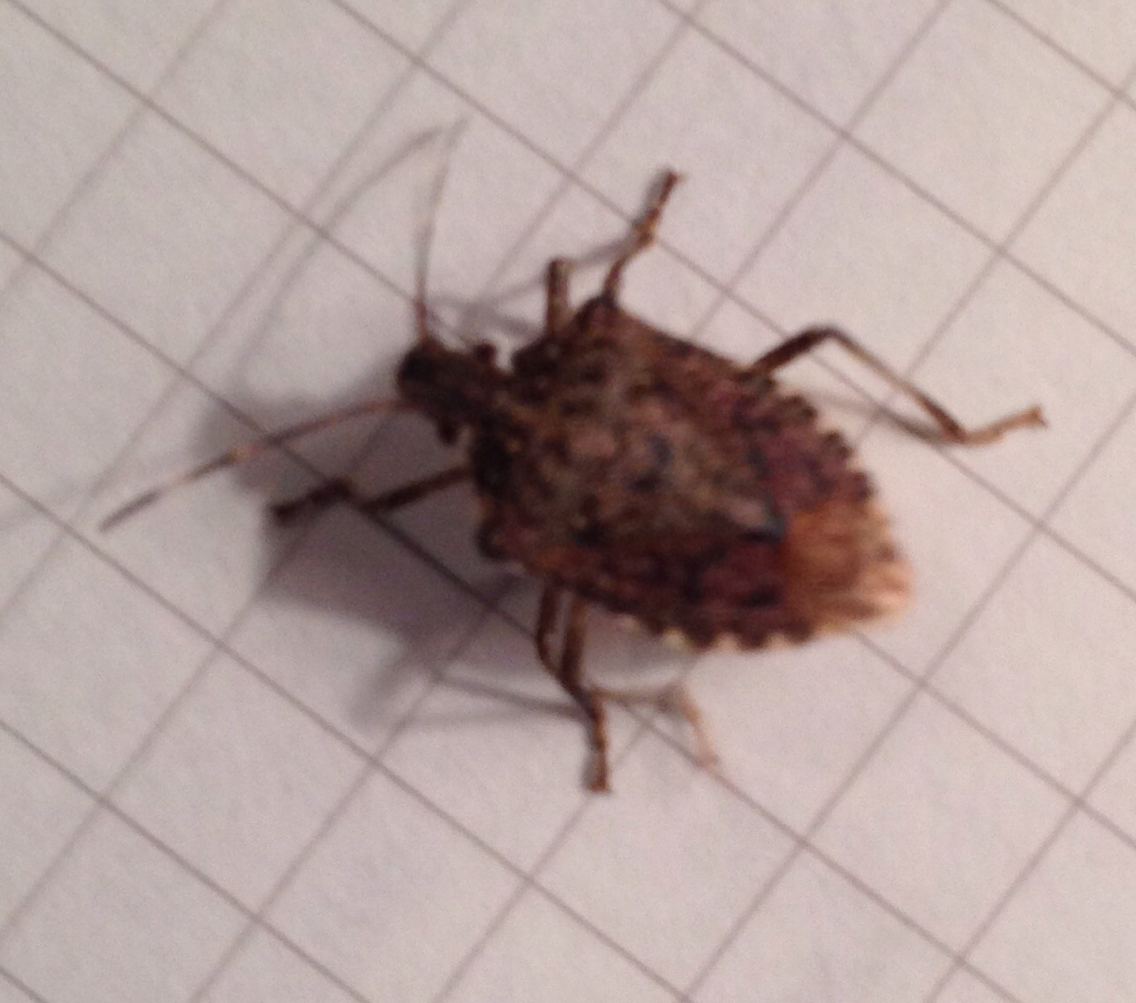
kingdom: Animalia
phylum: Arthropoda
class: Insecta
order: Hemiptera
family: Pentatomidae
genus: Halyomorpha
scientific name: Halyomorpha halys
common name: Brown marmorated stink bug
